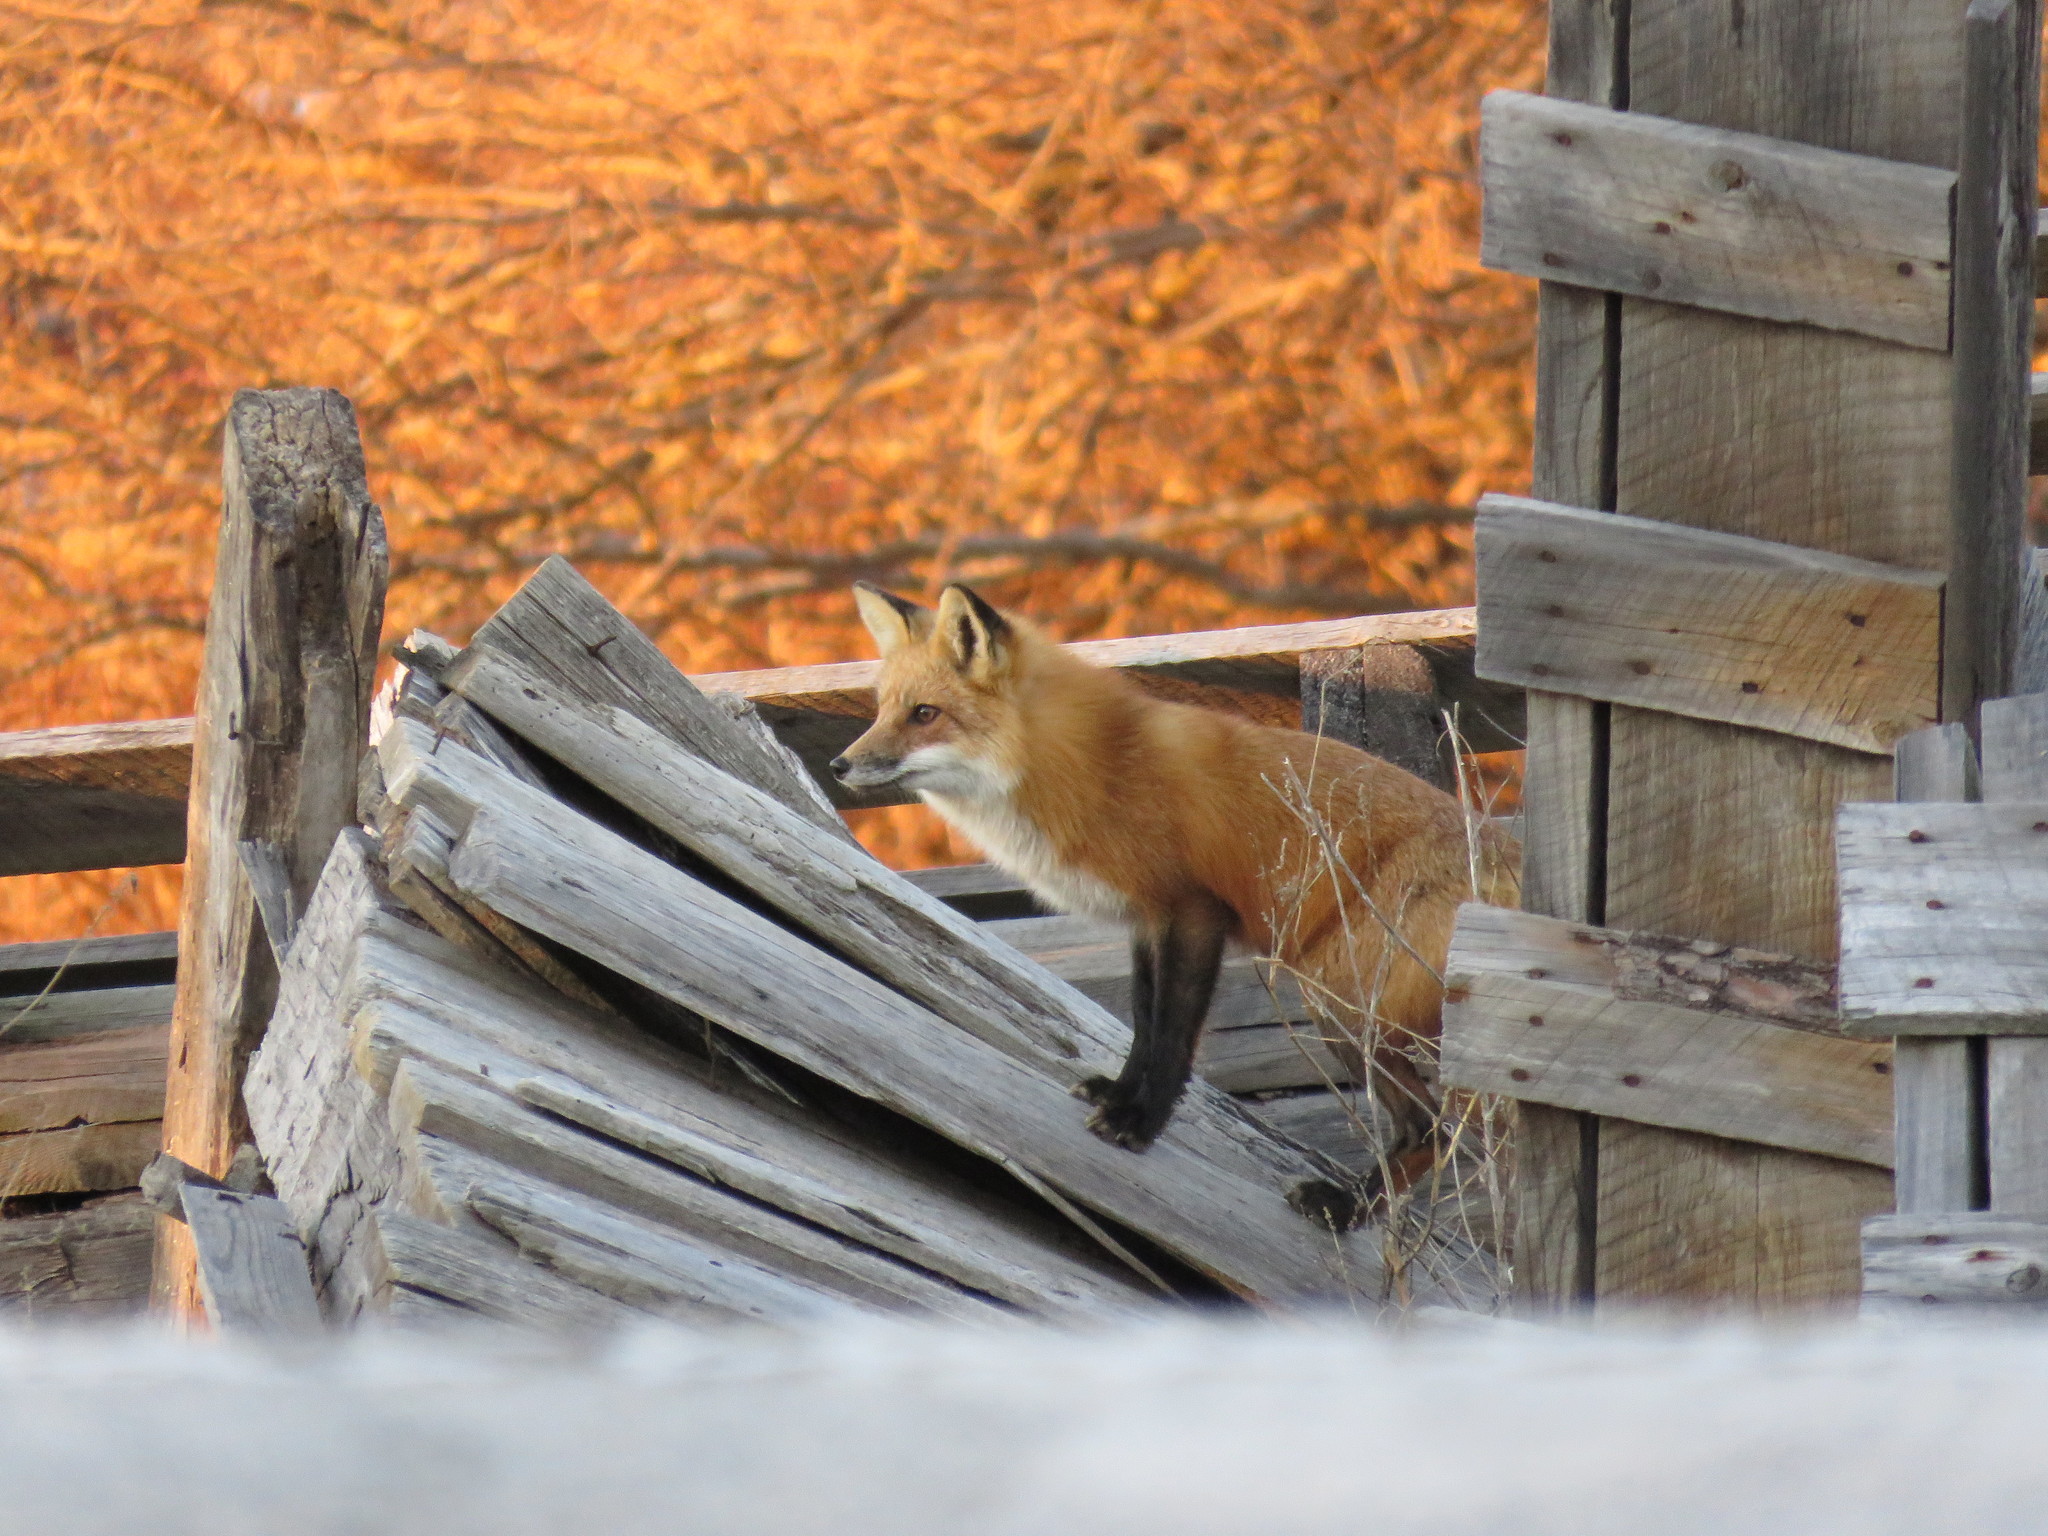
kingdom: Animalia
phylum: Chordata
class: Mammalia
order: Carnivora
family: Canidae
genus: Vulpes
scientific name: Vulpes vulpes
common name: Red fox
